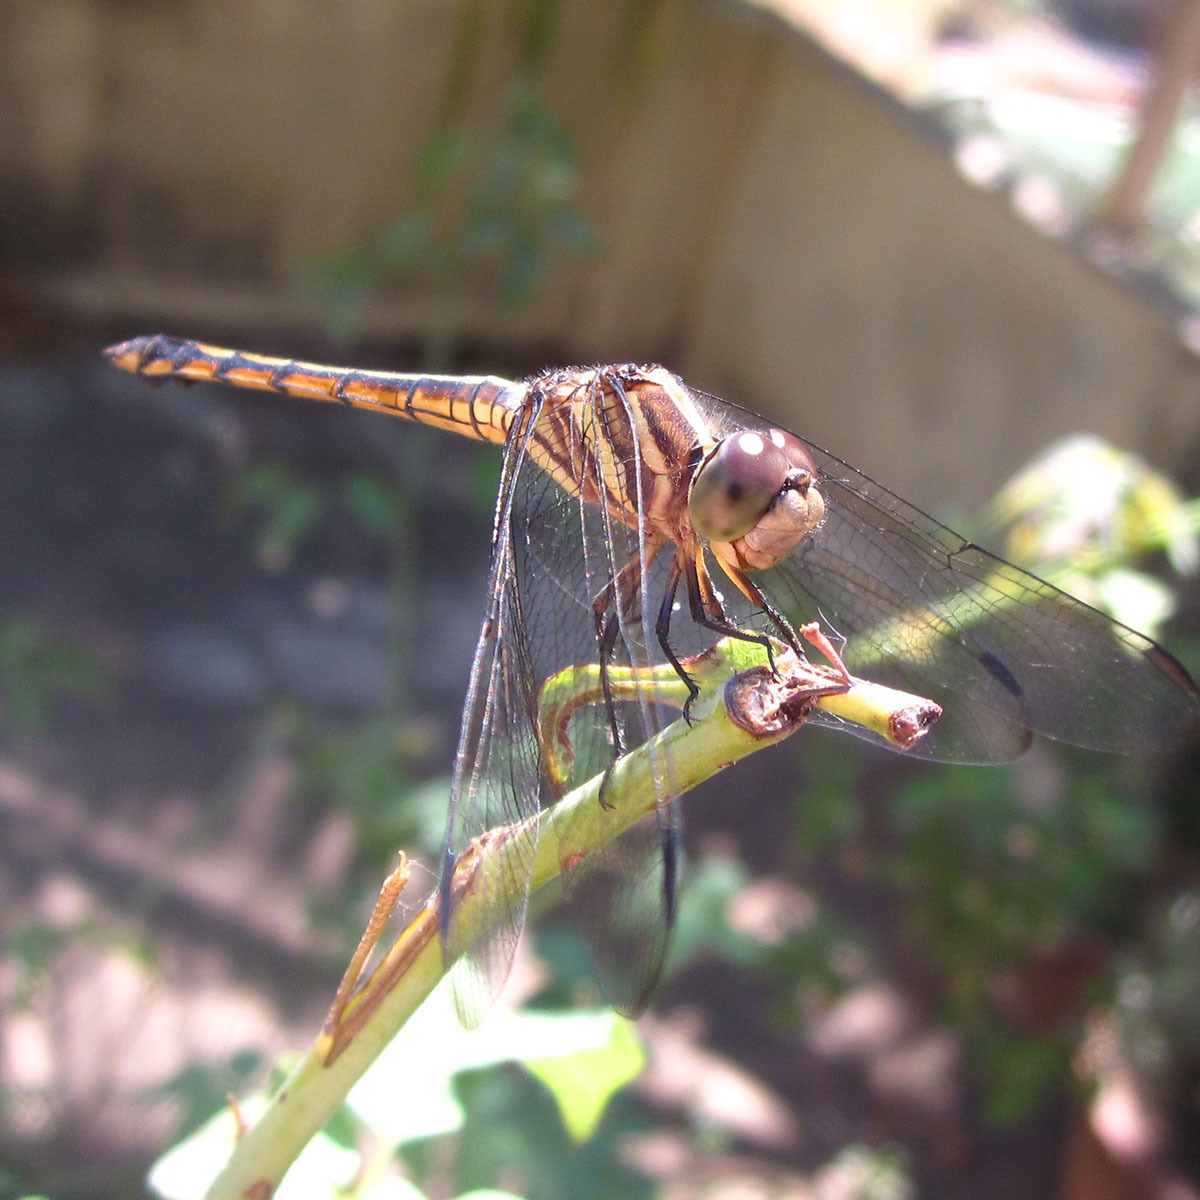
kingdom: Animalia
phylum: Arthropoda
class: Insecta
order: Odonata
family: Libellulidae
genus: Potamarcha
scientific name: Potamarcha congener
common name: Blue chaser
